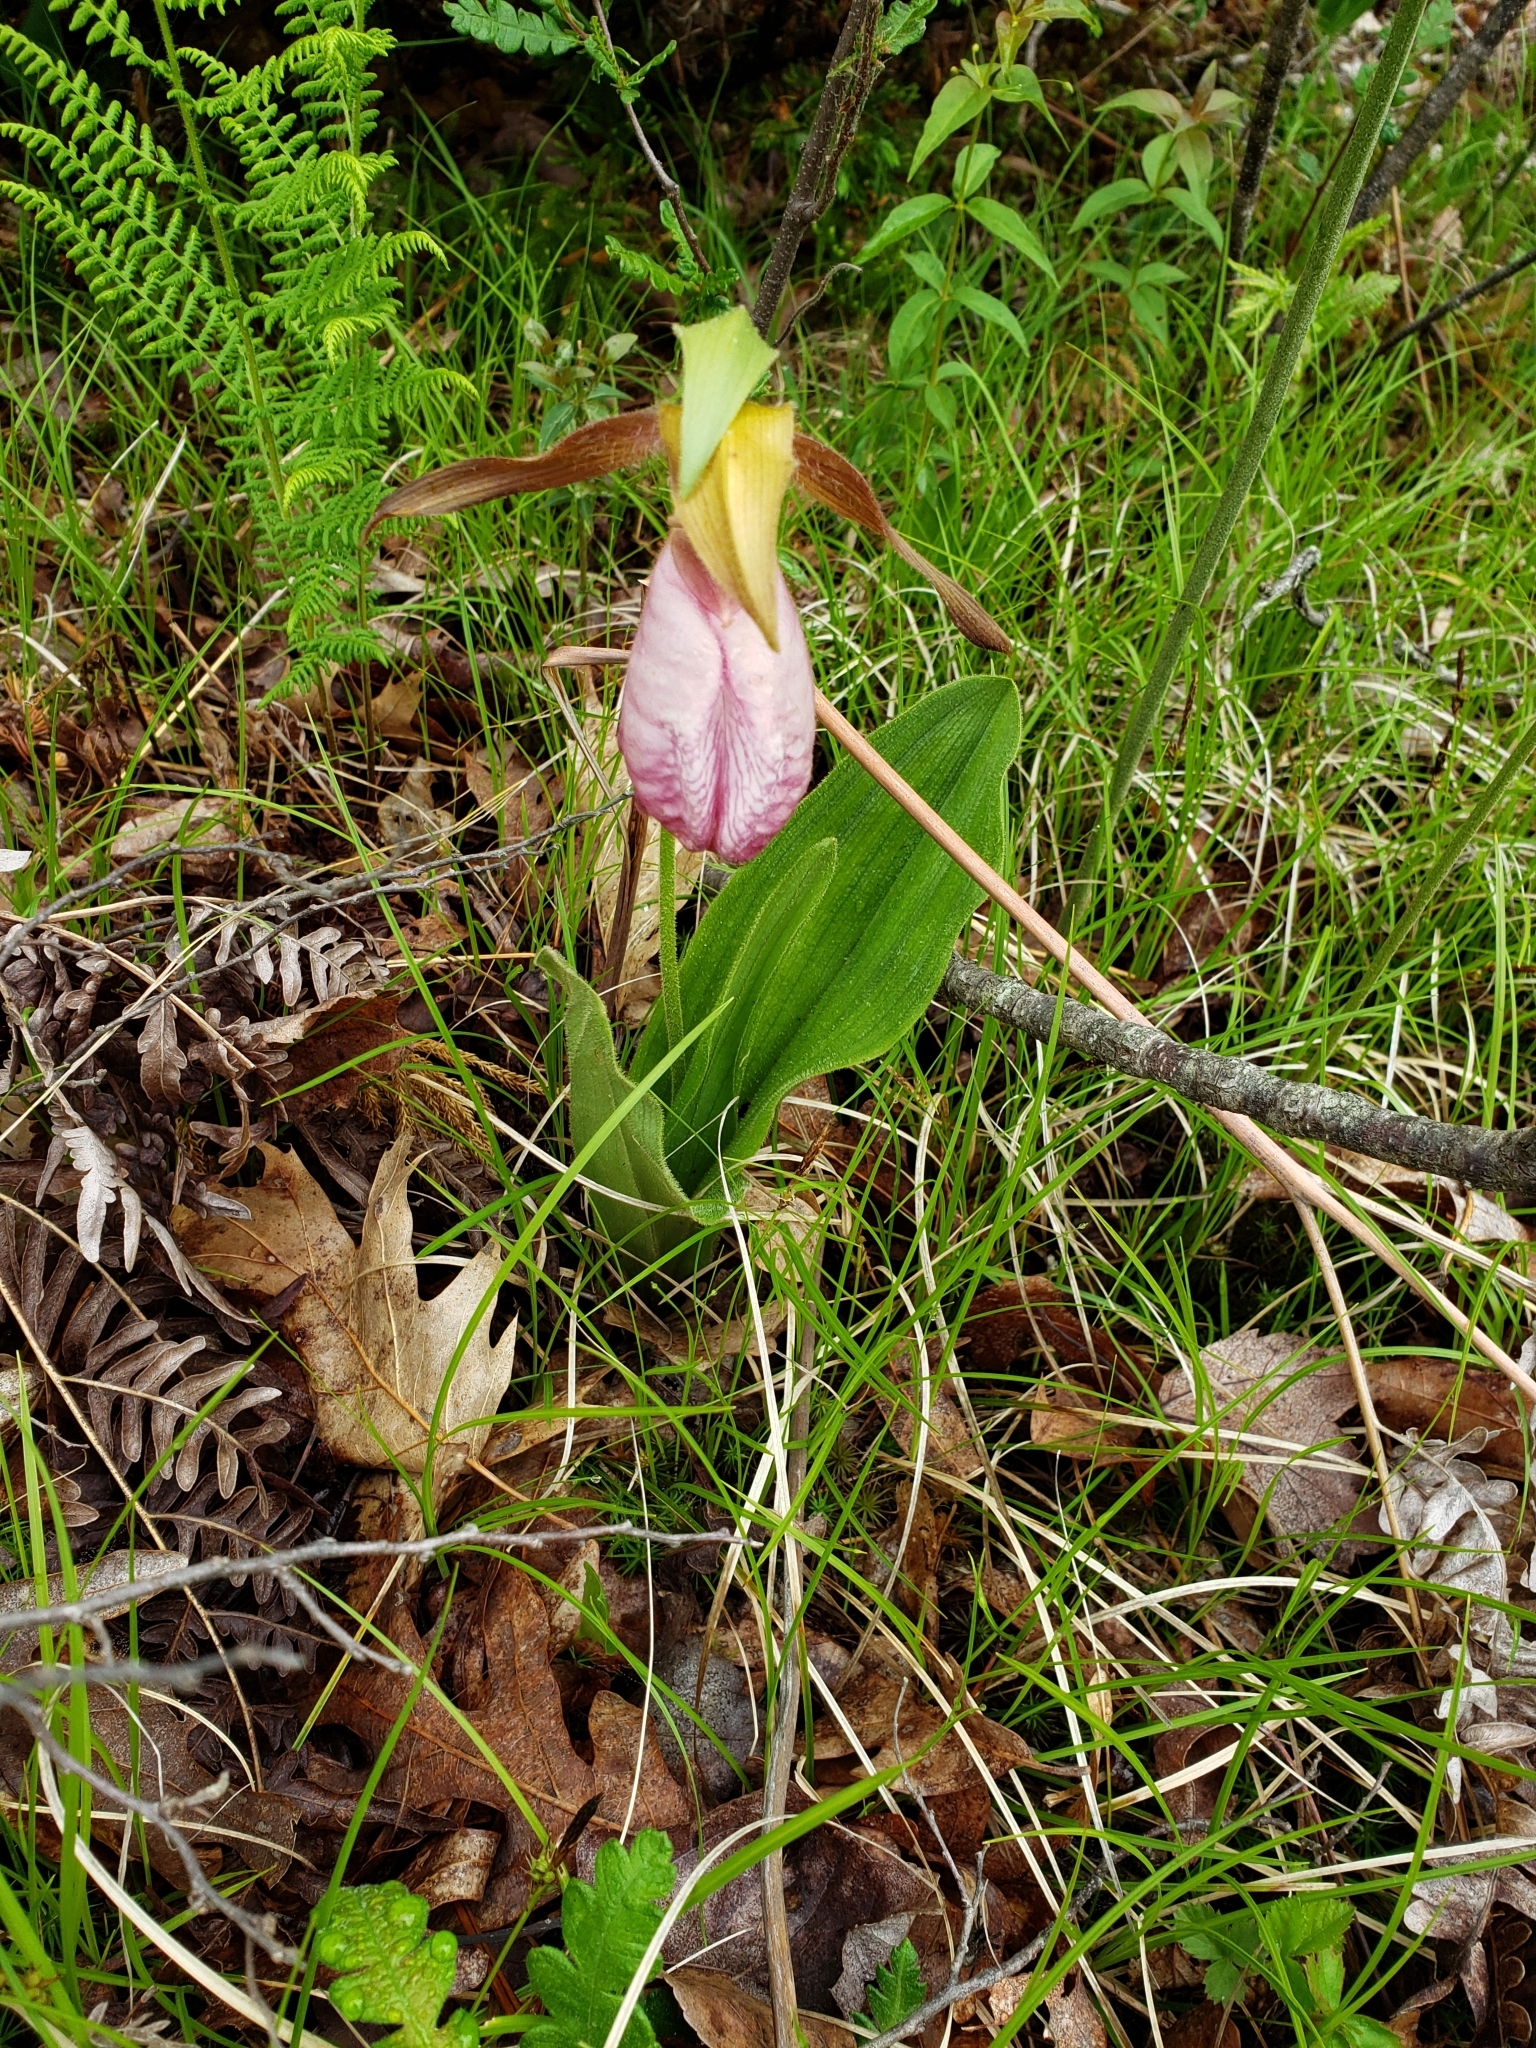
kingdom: Plantae
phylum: Tracheophyta
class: Liliopsida
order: Asparagales
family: Orchidaceae
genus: Cypripedium
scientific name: Cypripedium acaule
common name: Pink lady's-slipper
